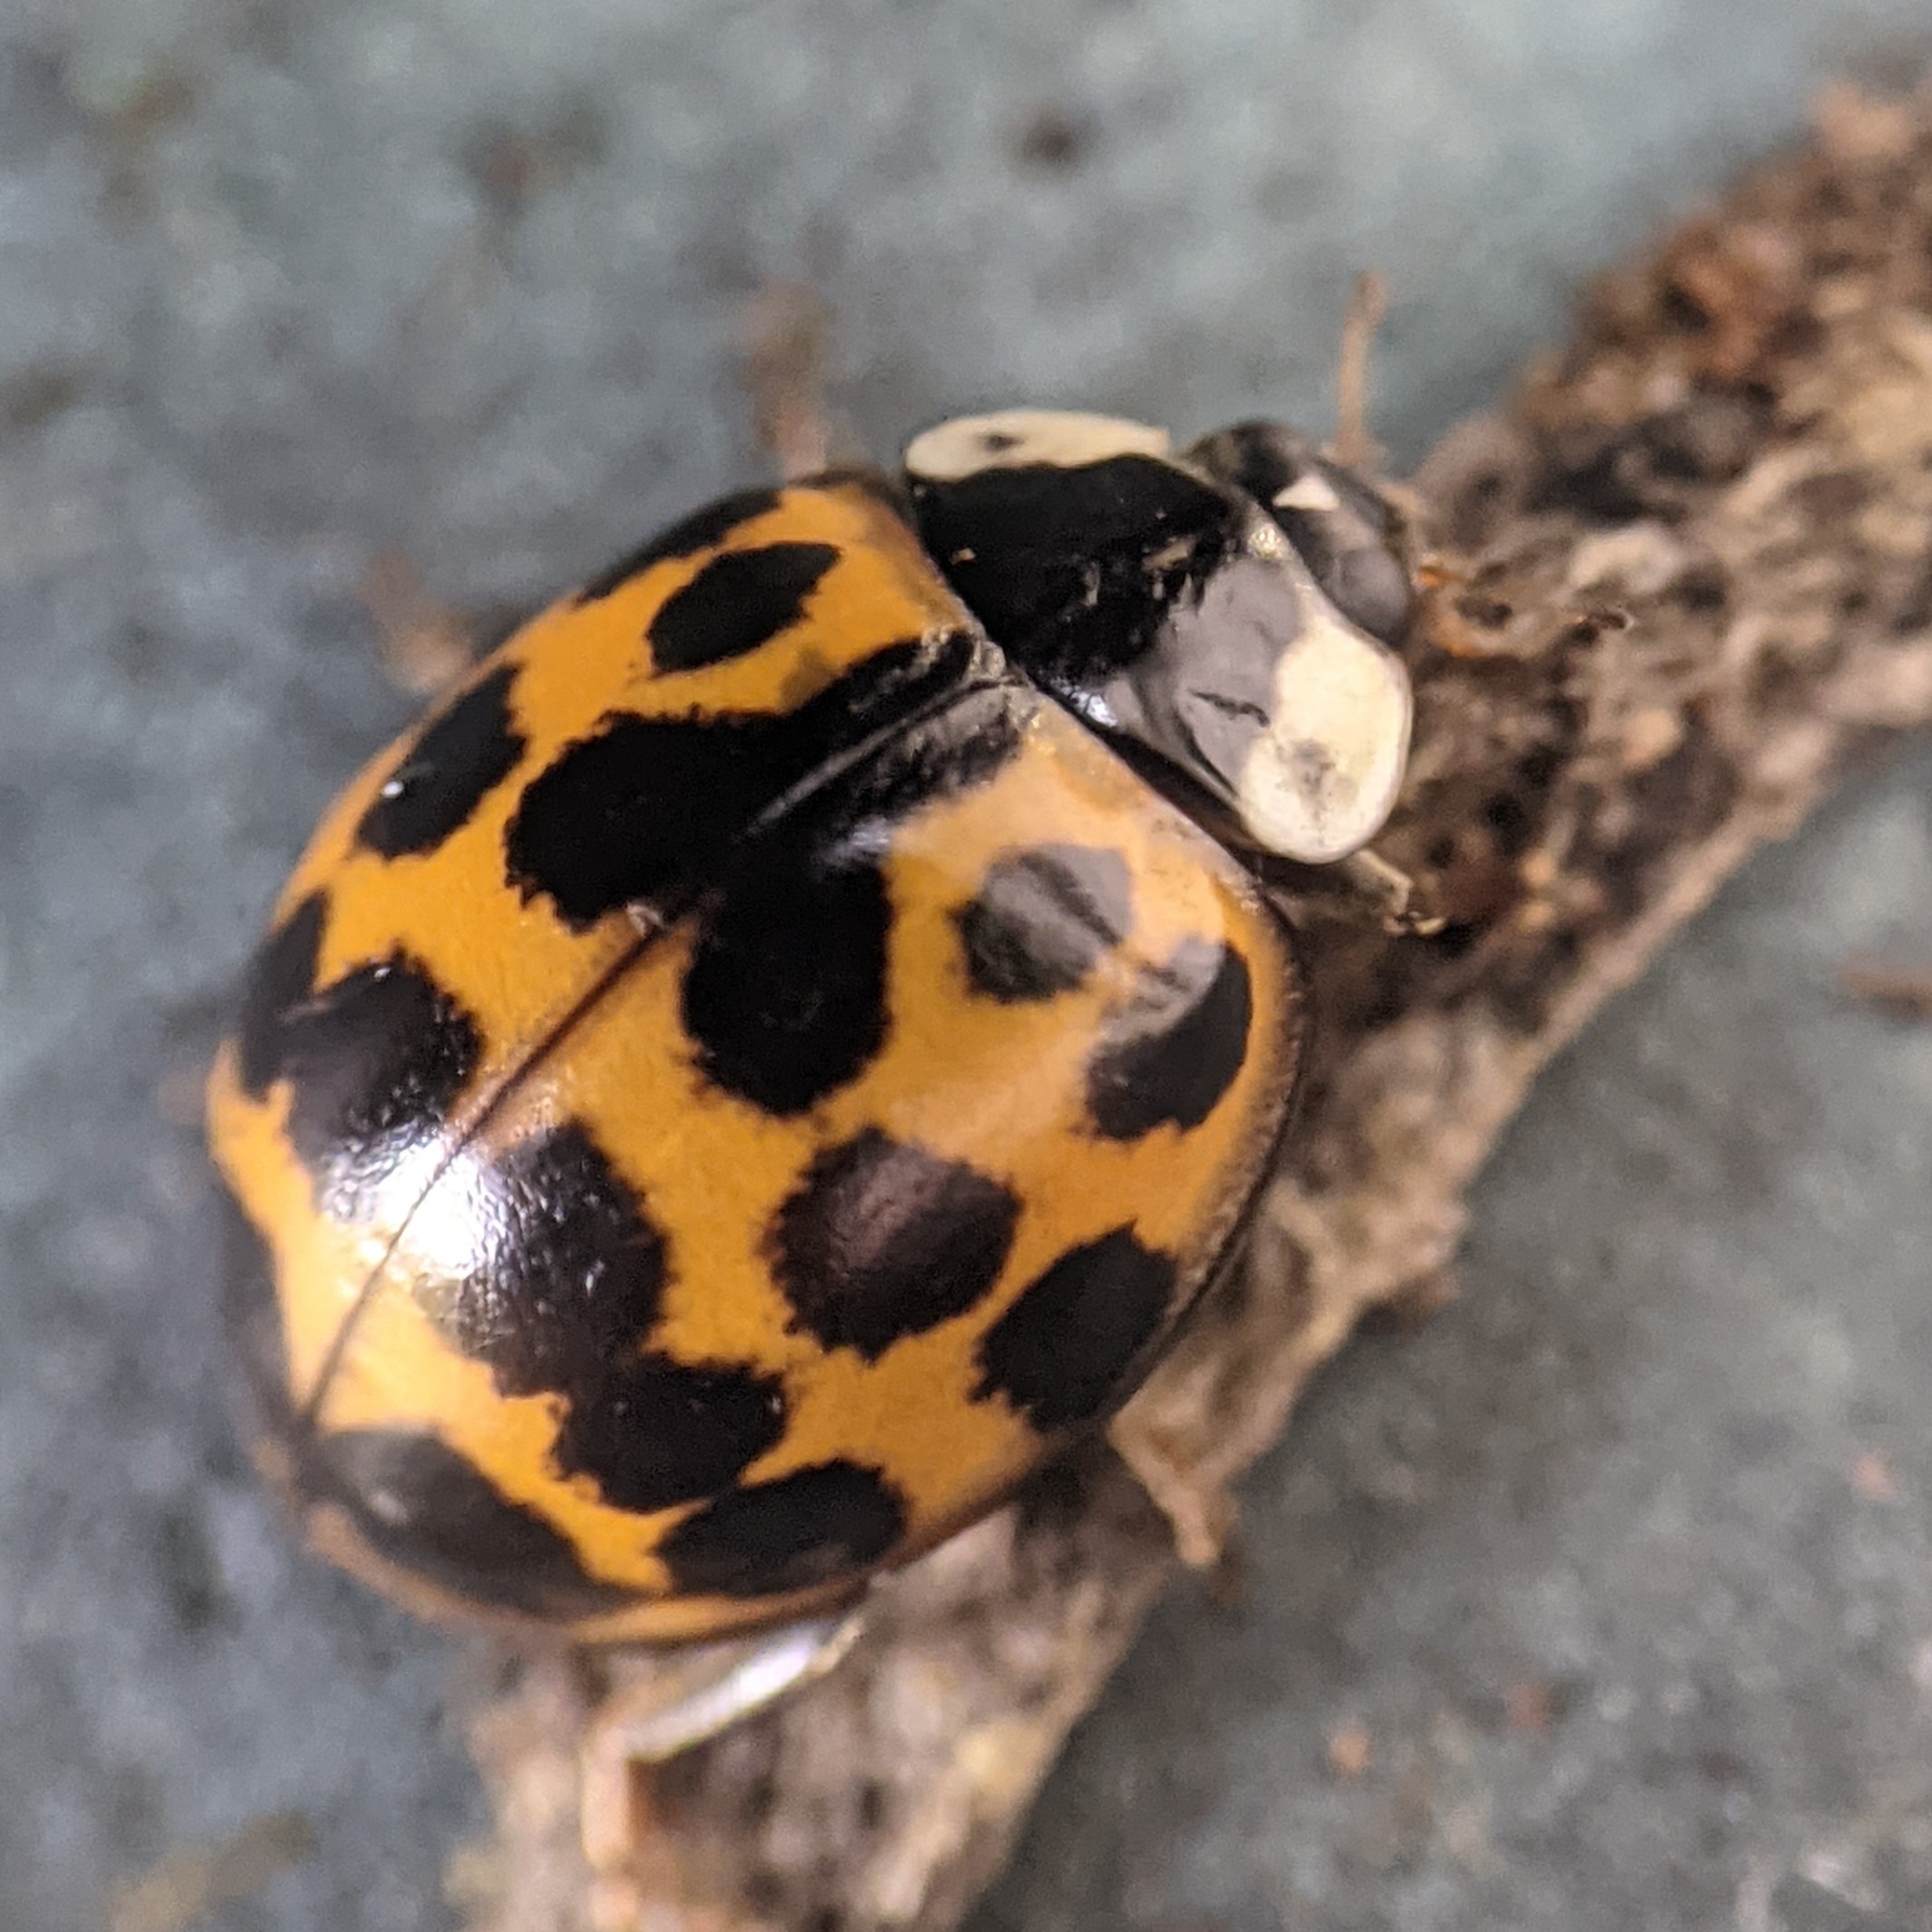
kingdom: Animalia
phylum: Arthropoda
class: Insecta
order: Coleoptera
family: Coccinellidae
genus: Harmonia
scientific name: Harmonia axyridis
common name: Harlequin ladybird
